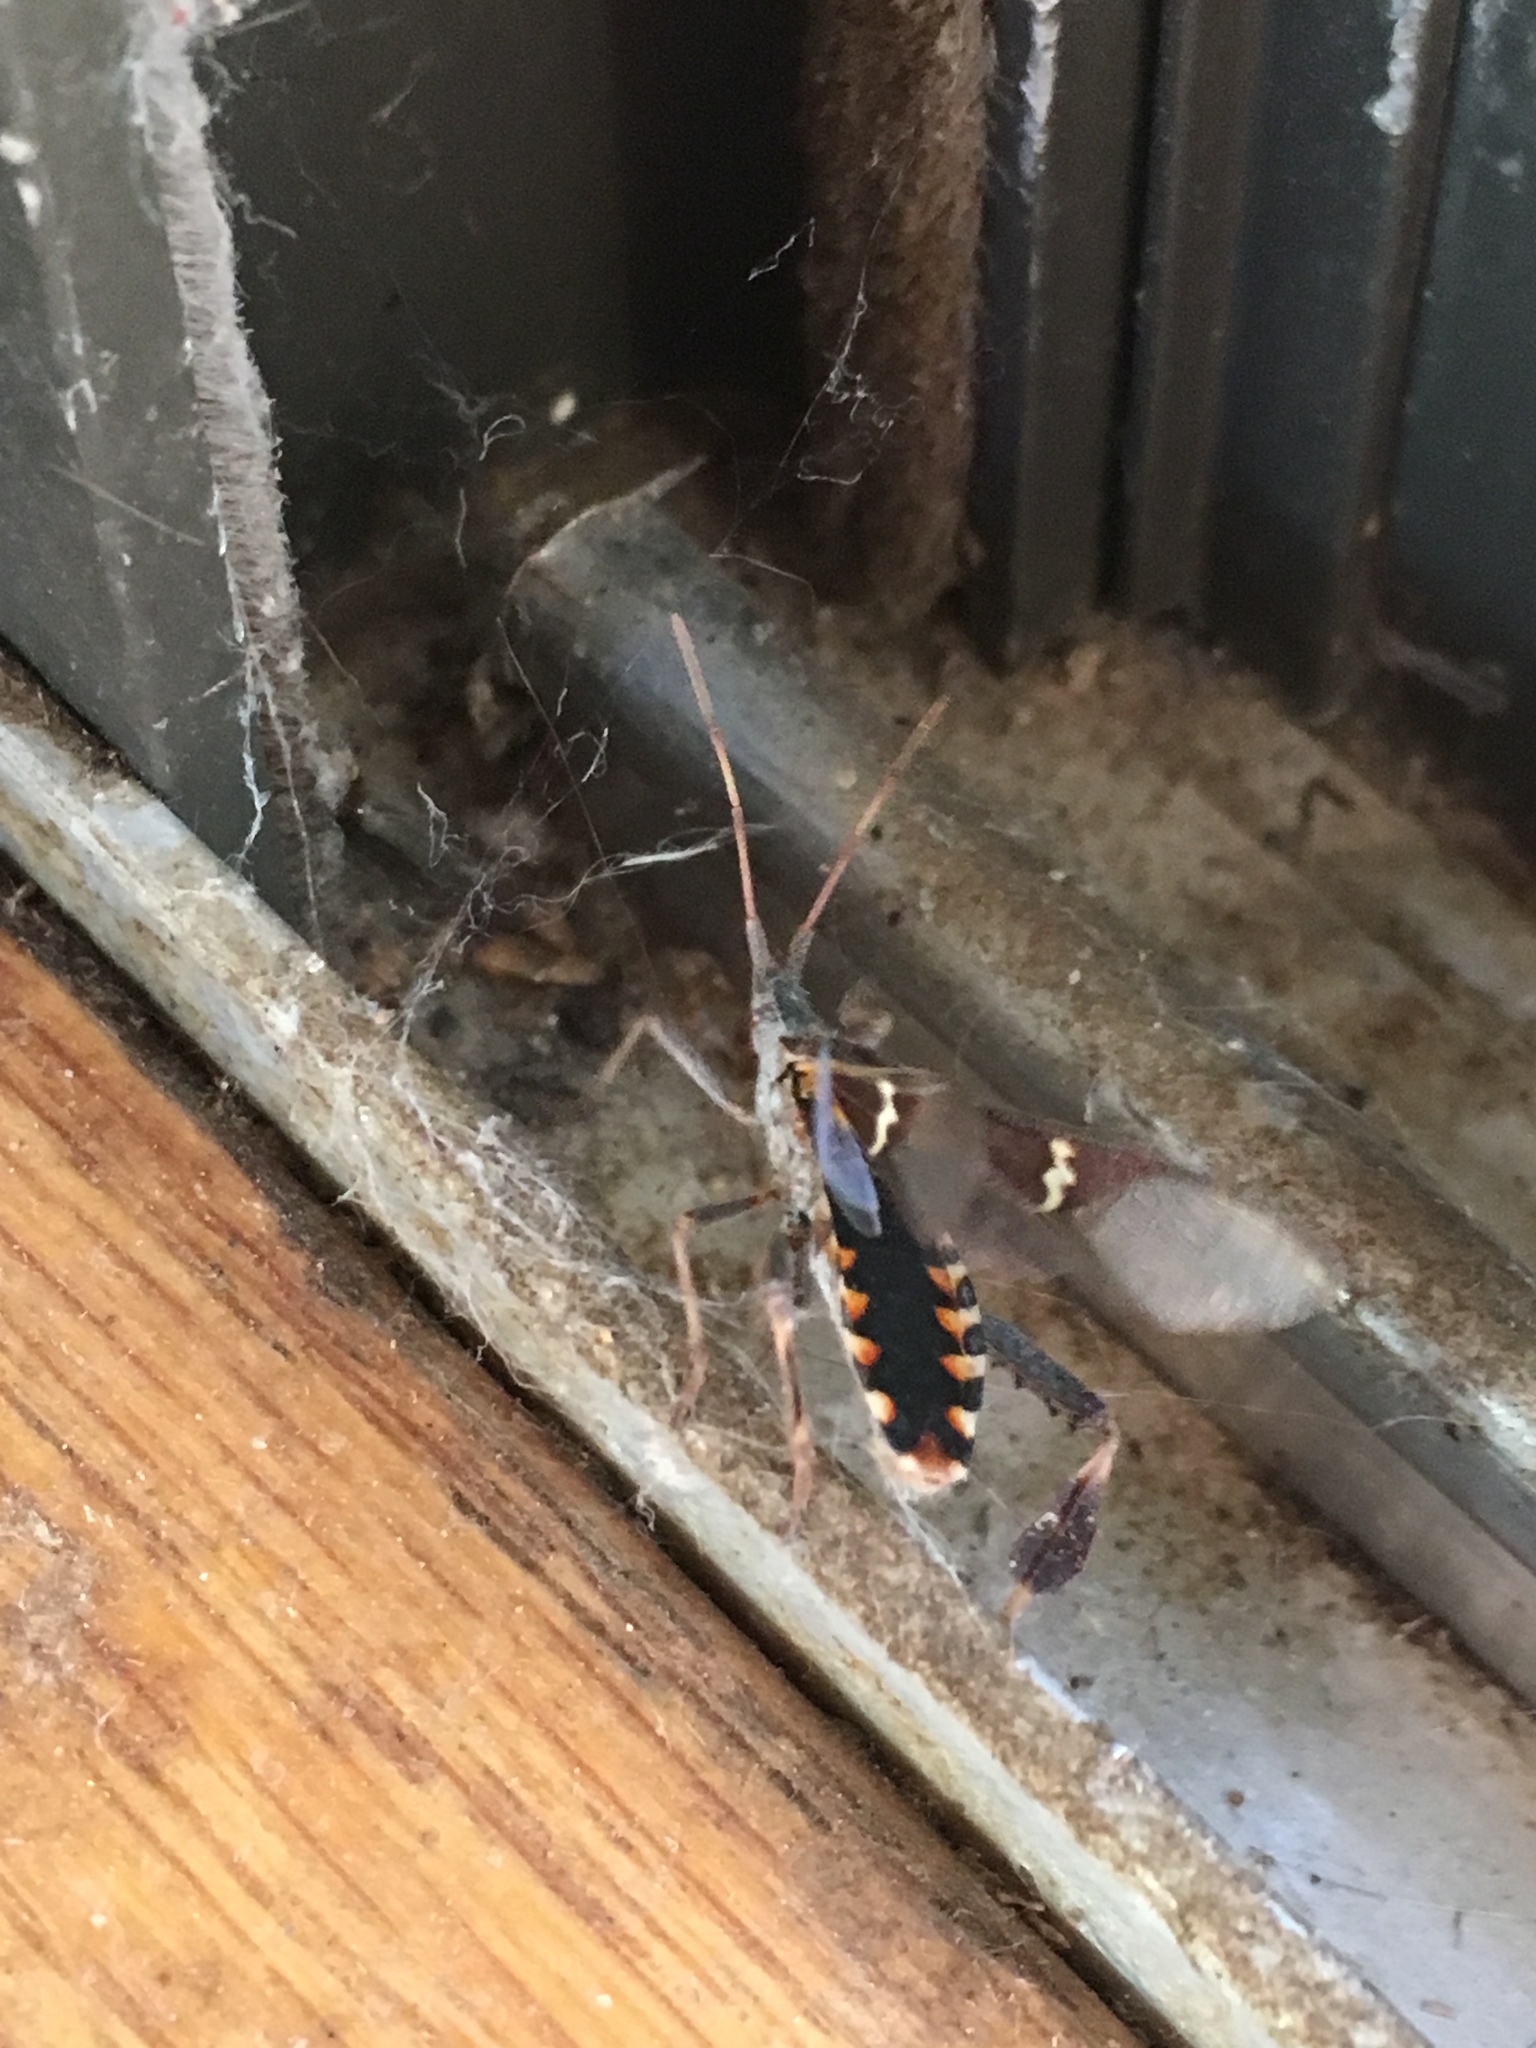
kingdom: Animalia
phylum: Arthropoda
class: Insecta
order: Hemiptera
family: Coreidae
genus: Leptoglossus
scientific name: Leptoglossus clypealis
